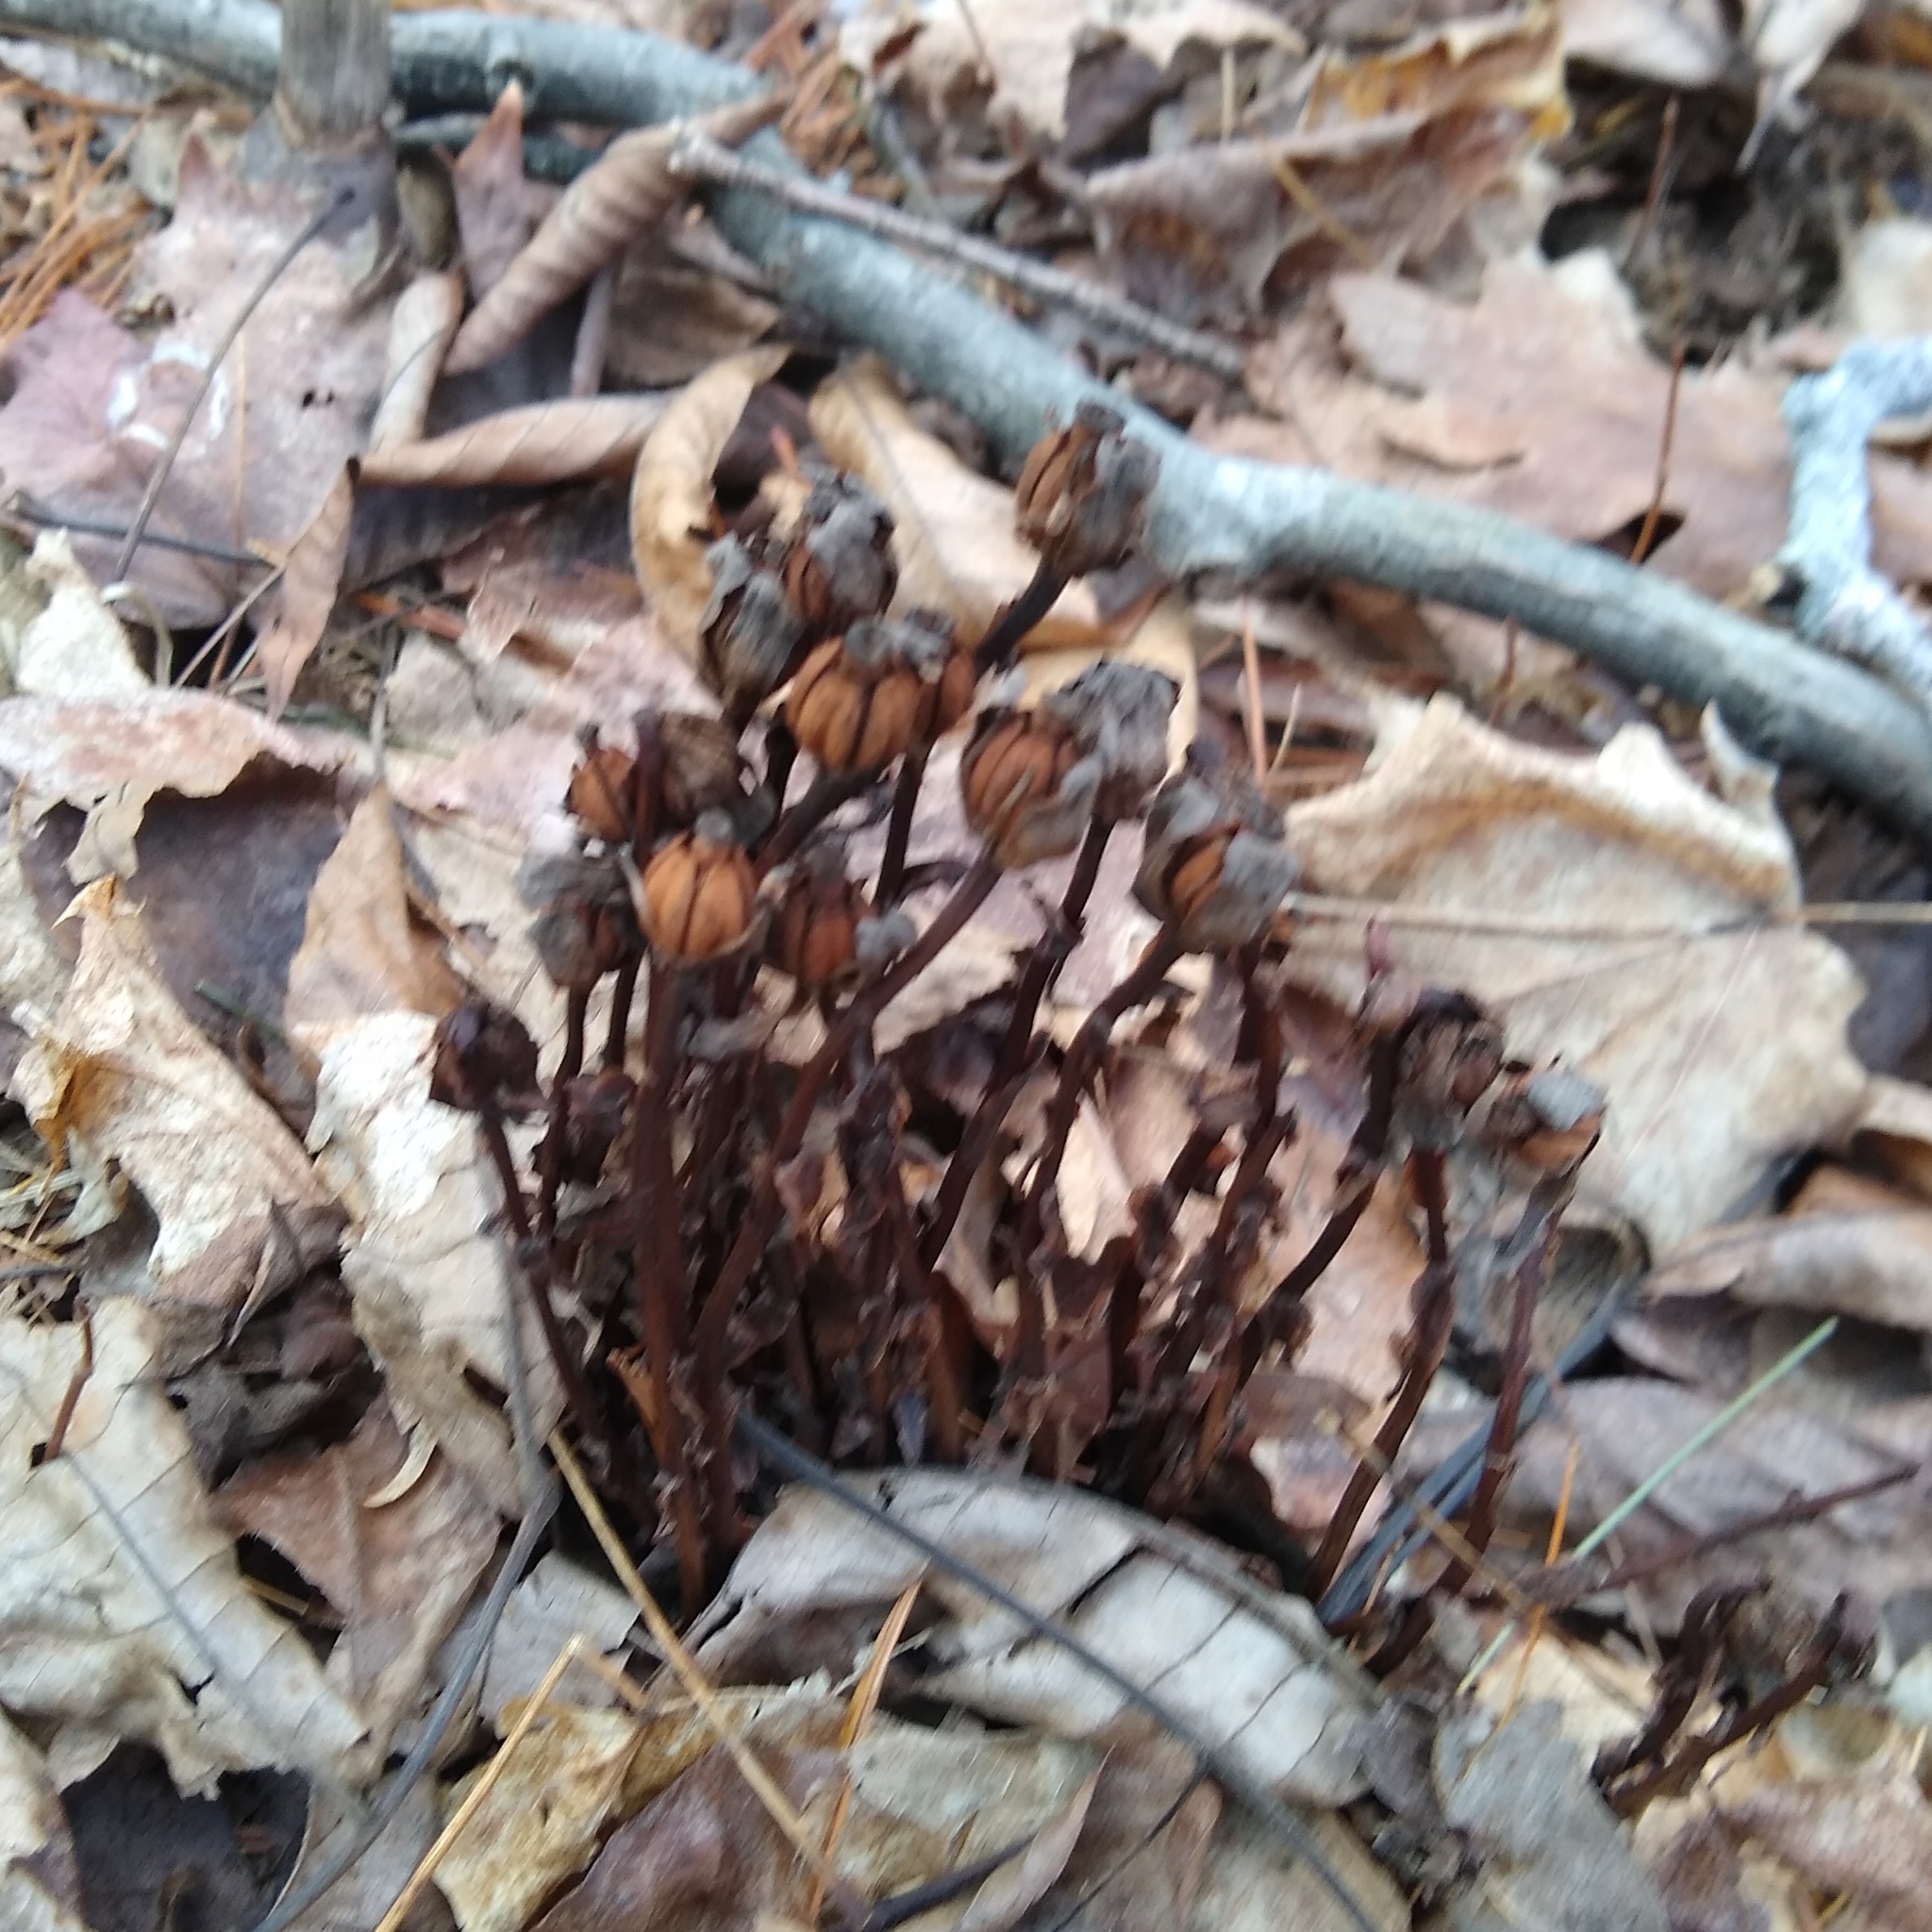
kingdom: Plantae
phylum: Tracheophyta
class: Magnoliopsida
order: Ericales
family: Ericaceae
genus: Monotropa
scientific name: Monotropa uniflora
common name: Convulsion root
